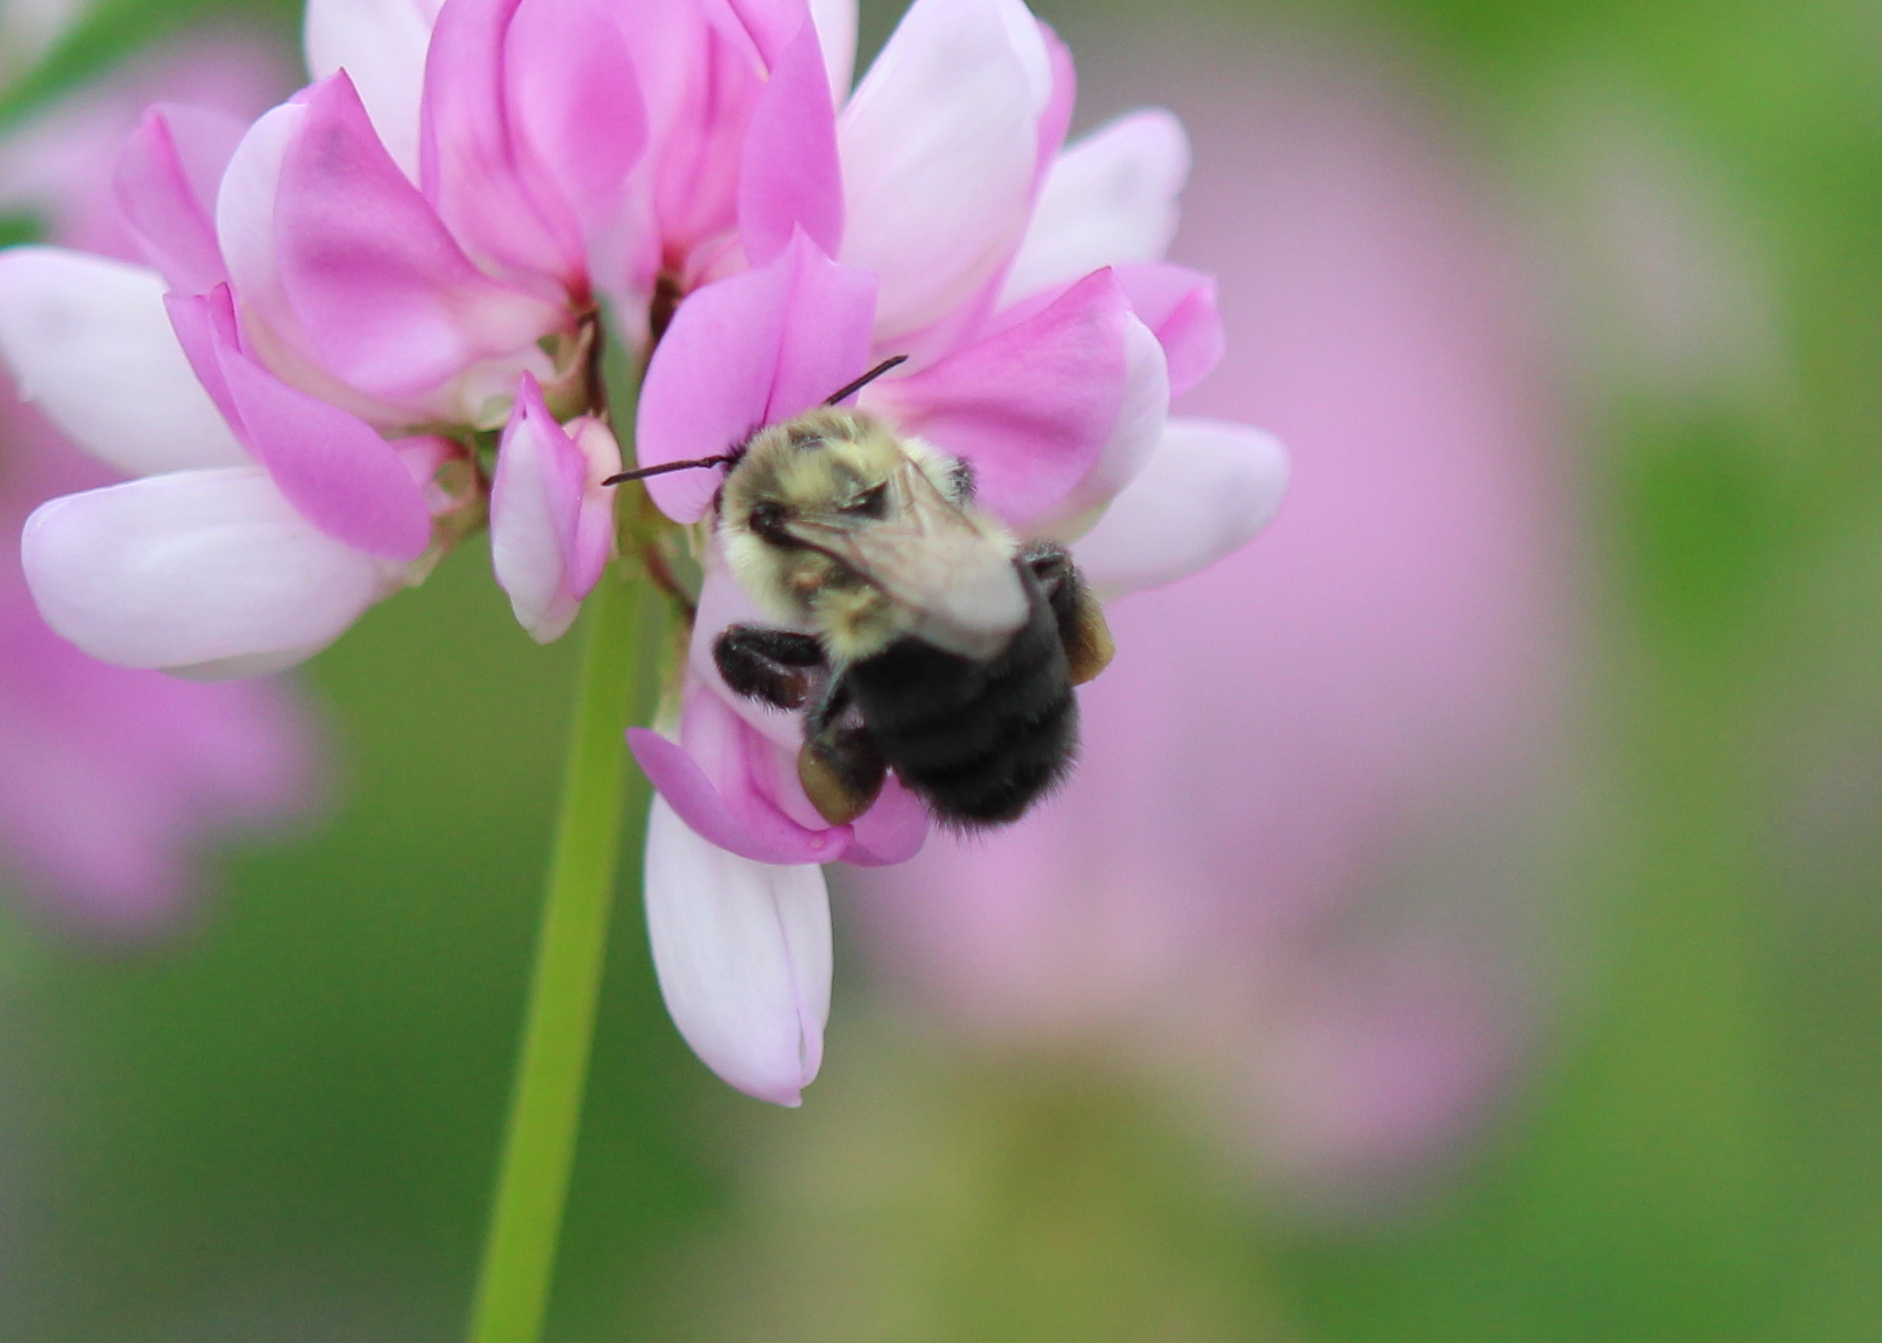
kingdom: Animalia
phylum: Arthropoda
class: Insecta
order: Hymenoptera
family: Apidae
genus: Bombus
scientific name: Bombus impatiens
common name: Common eastern bumble bee
